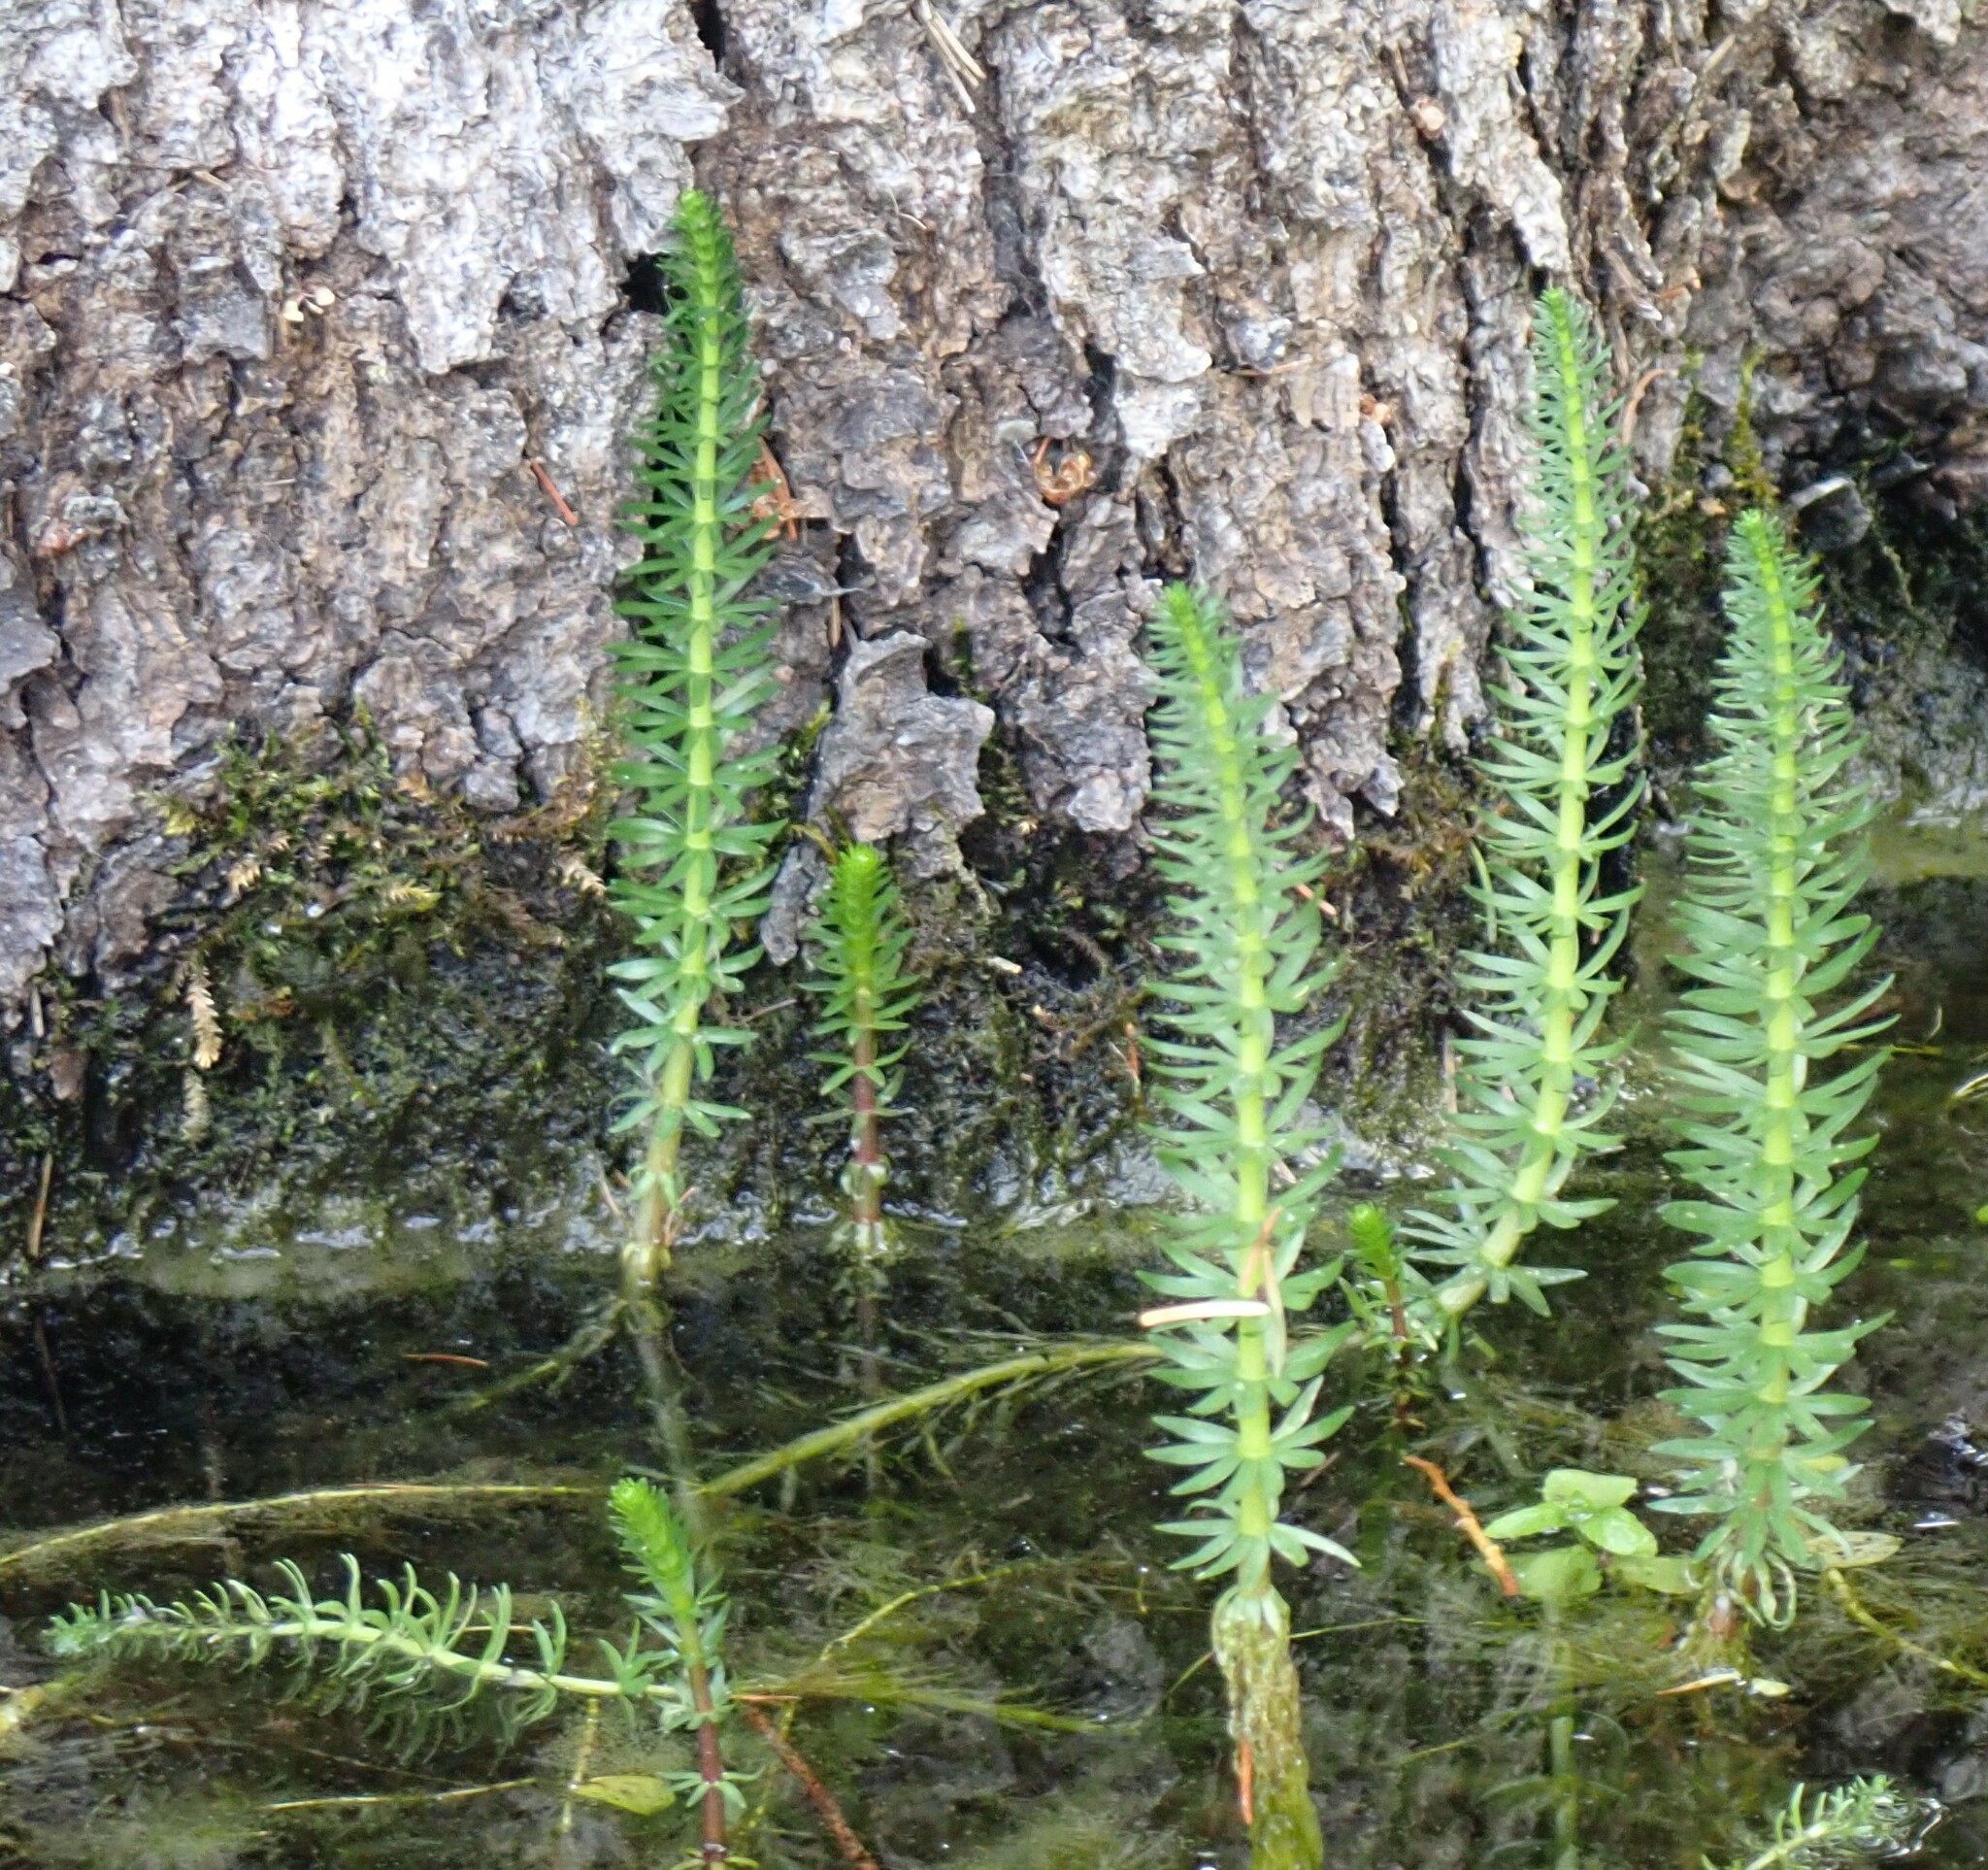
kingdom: Plantae
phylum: Tracheophyta
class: Magnoliopsida
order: Lamiales
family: Plantaginaceae
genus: Hippuris
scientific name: Hippuris vulgaris
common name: Mare's-tail
